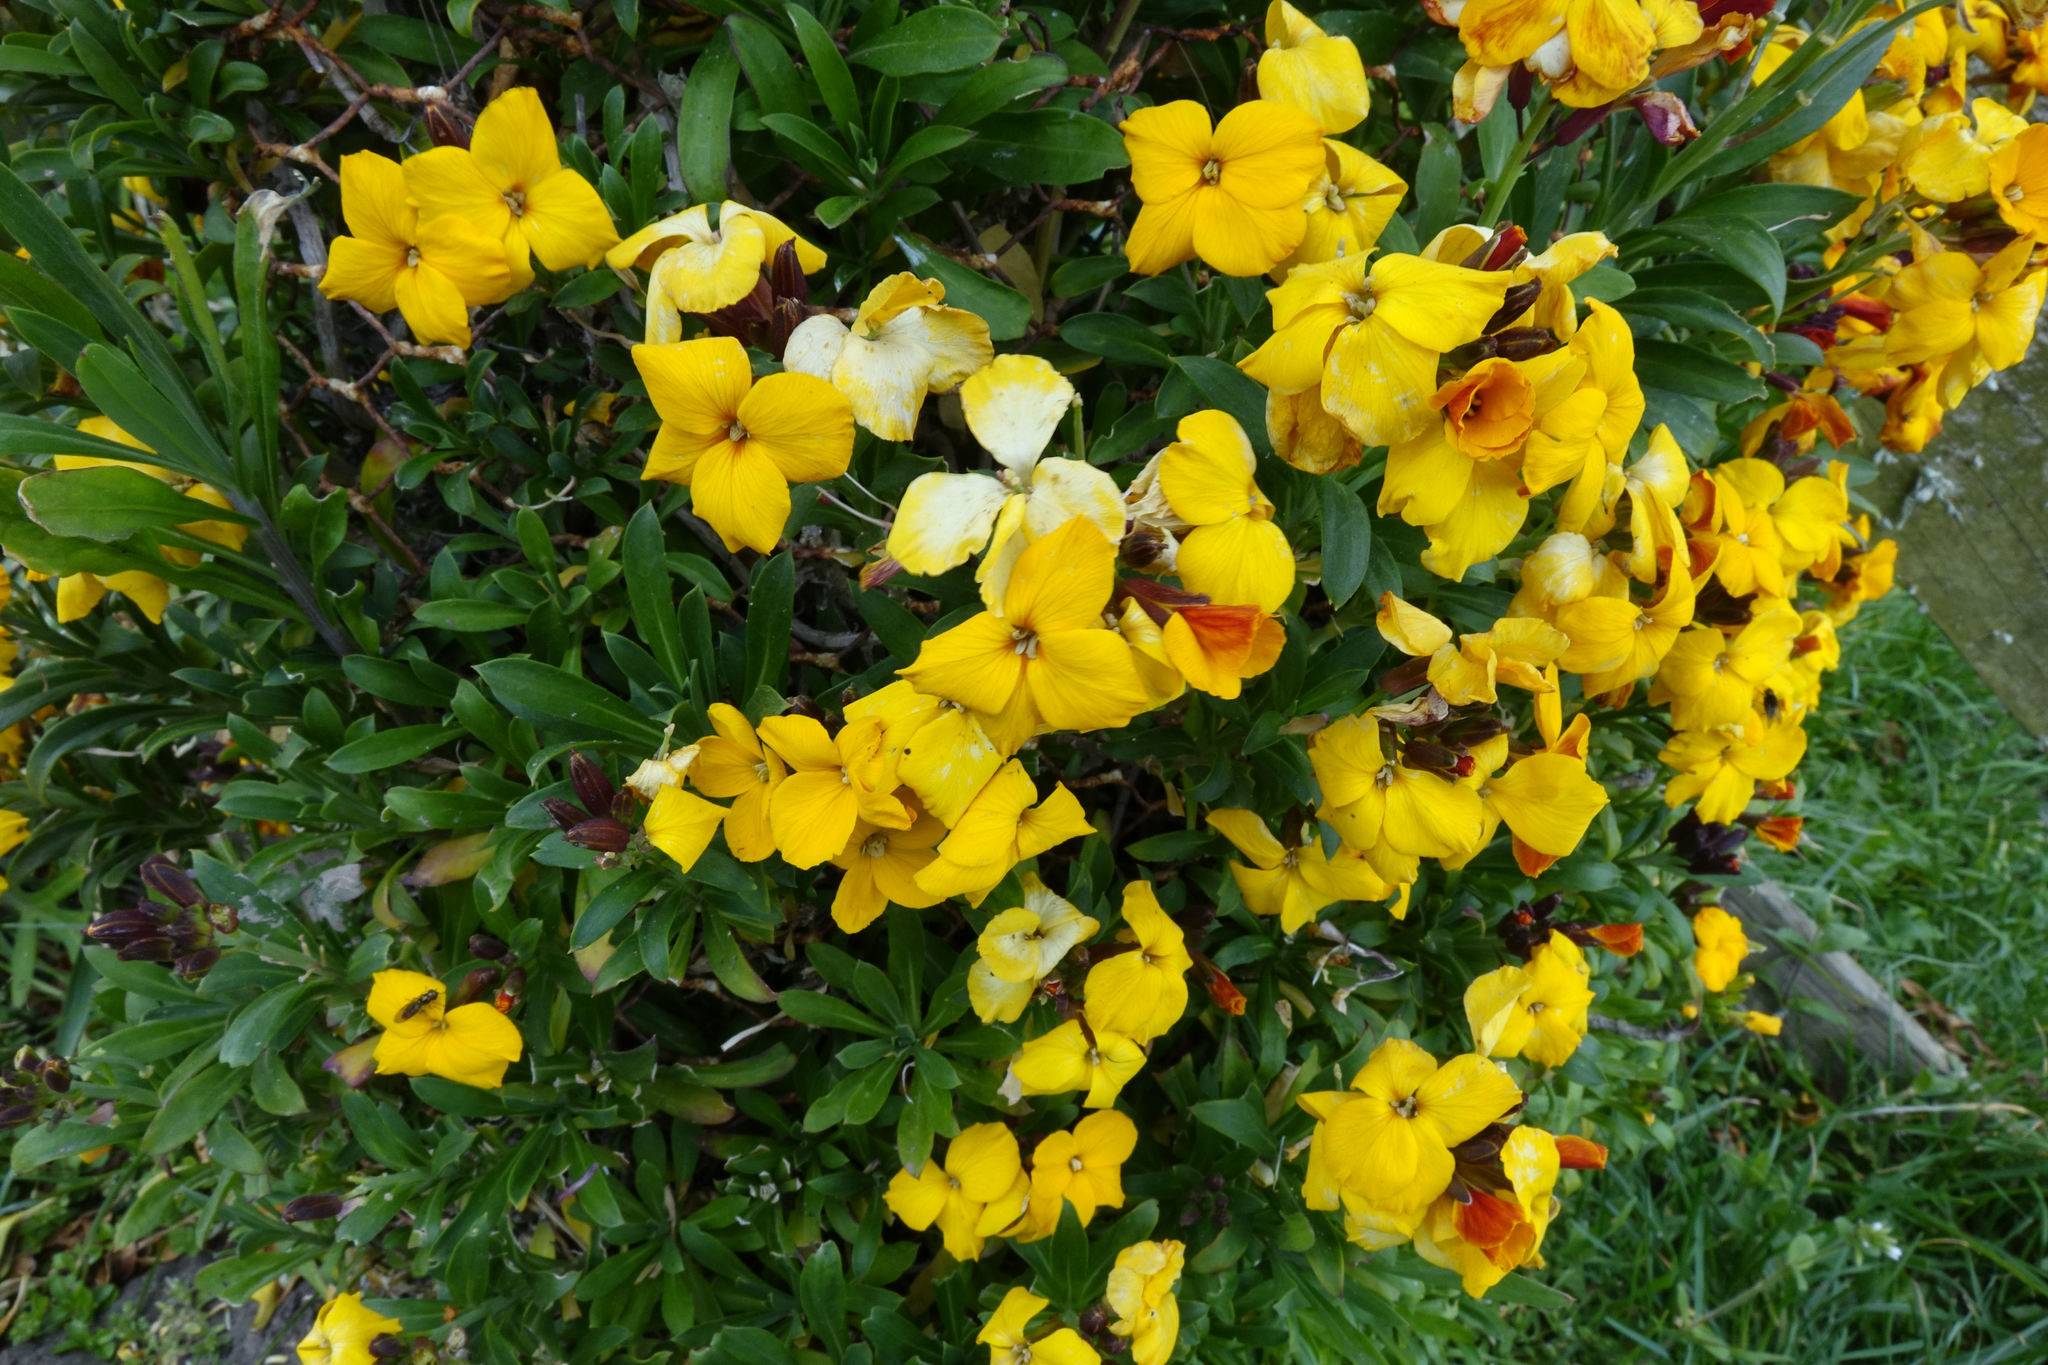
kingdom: Plantae
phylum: Tracheophyta
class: Magnoliopsida
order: Brassicales
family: Brassicaceae
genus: Erysimum
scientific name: Erysimum cheiri
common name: Wallflower
